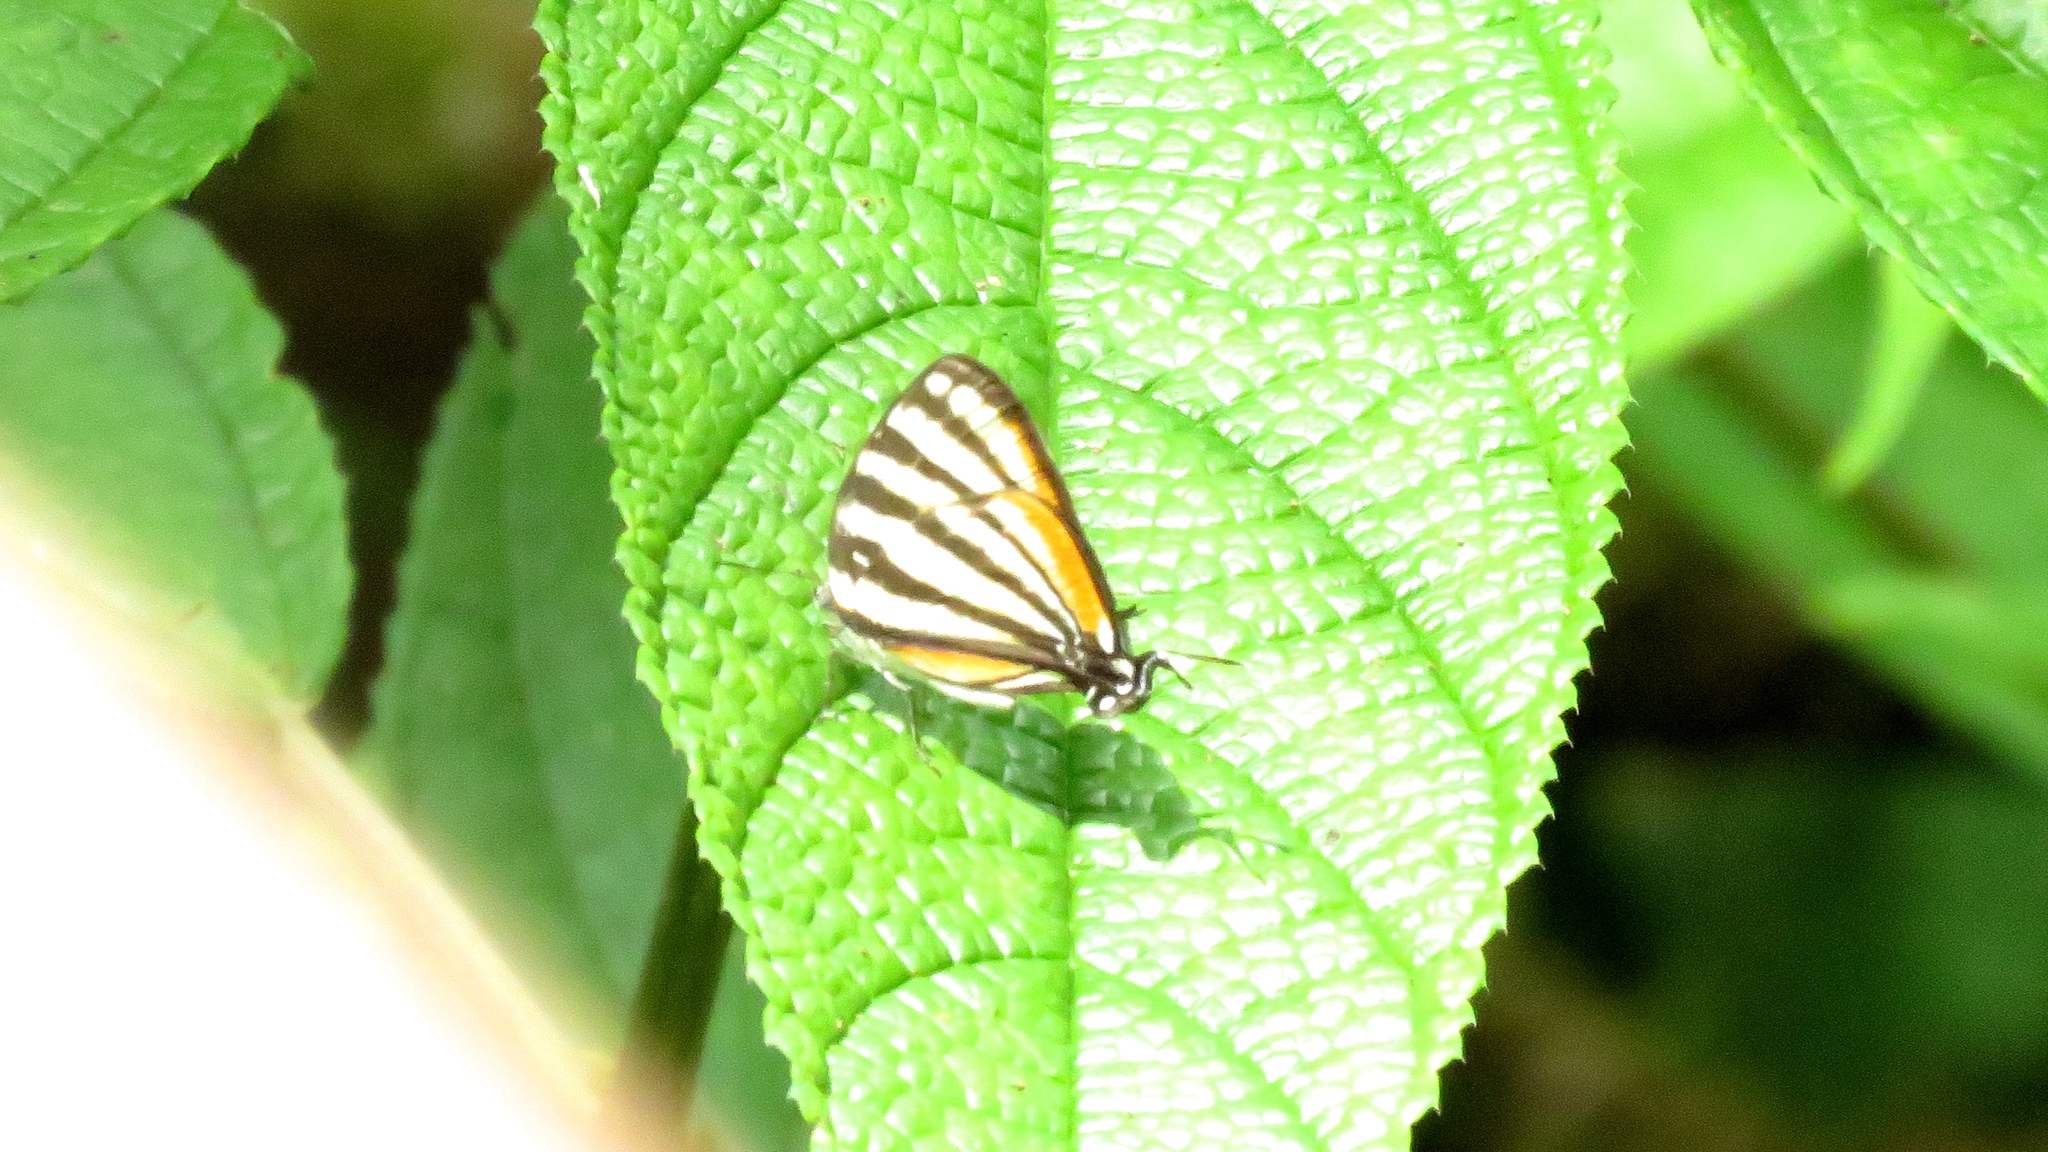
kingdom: Animalia
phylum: Arthropoda
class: Insecta
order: Lepidoptera
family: Lycaenidae
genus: Arawacus
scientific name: Arawacus lincoides
